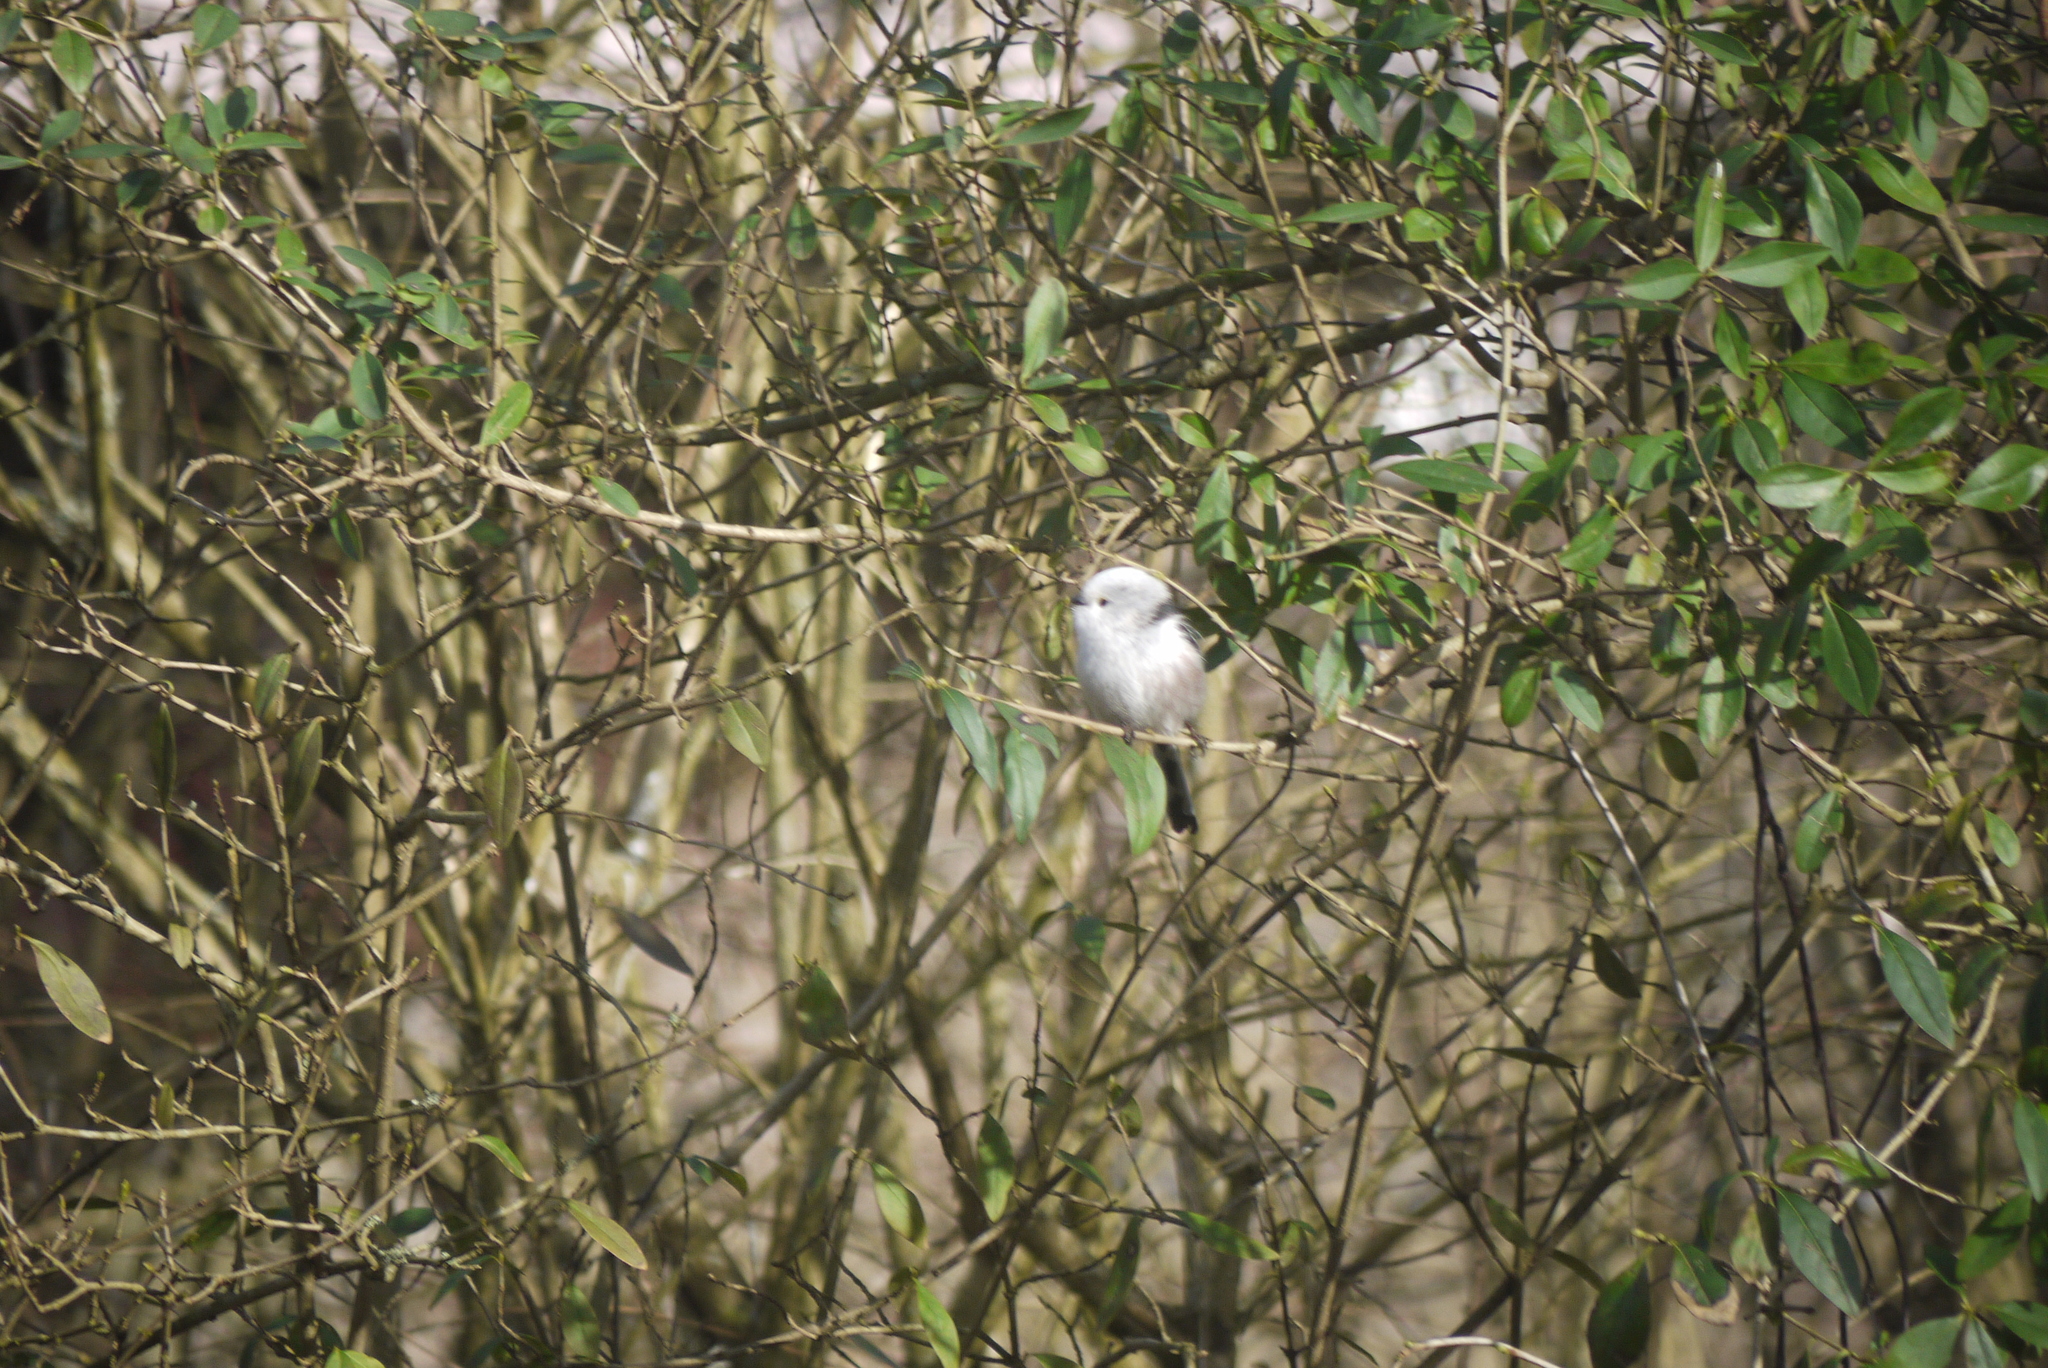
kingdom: Animalia
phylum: Chordata
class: Aves
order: Passeriformes
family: Aegithalidae
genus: Aegithalos
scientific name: Aegithalos caudatus
